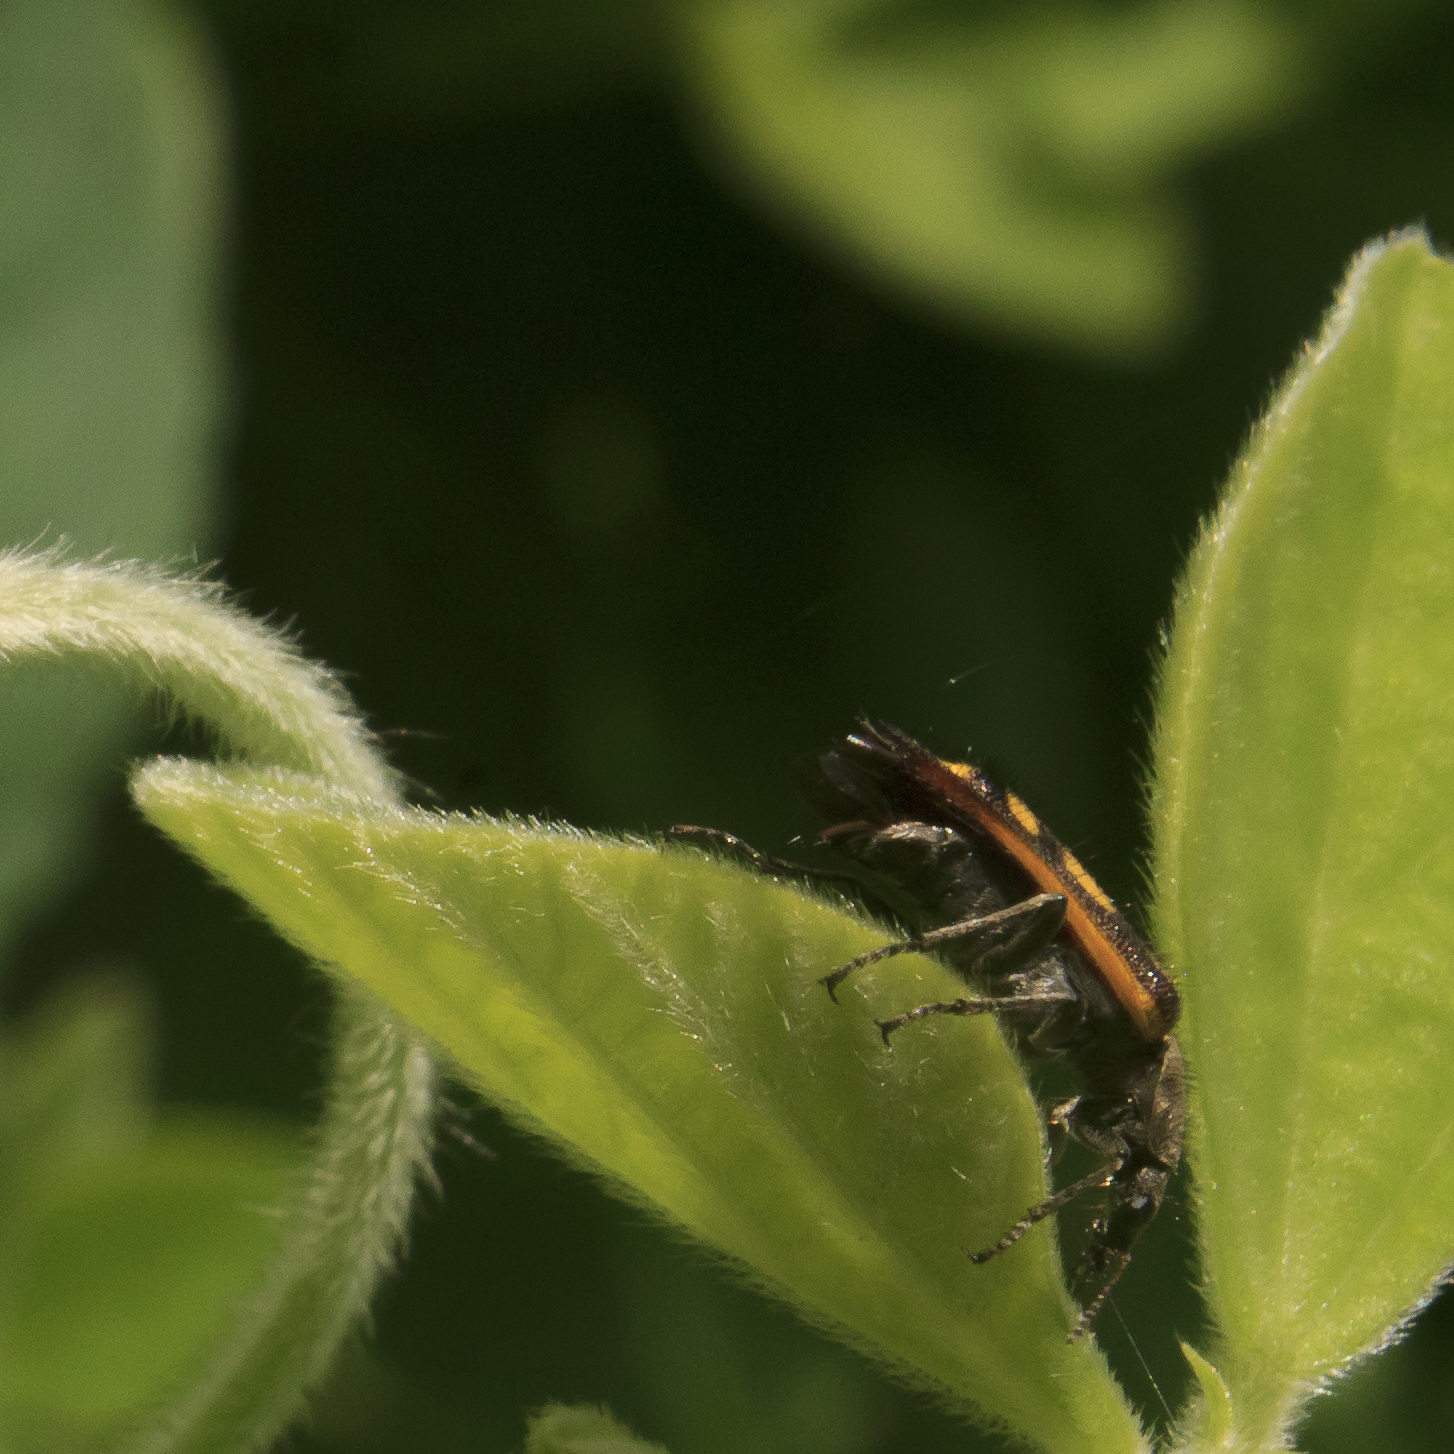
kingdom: Animalia
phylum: Arthropoda
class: Insecta
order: Coleoptera
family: Melyridae
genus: Astylus
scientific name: Astylus
